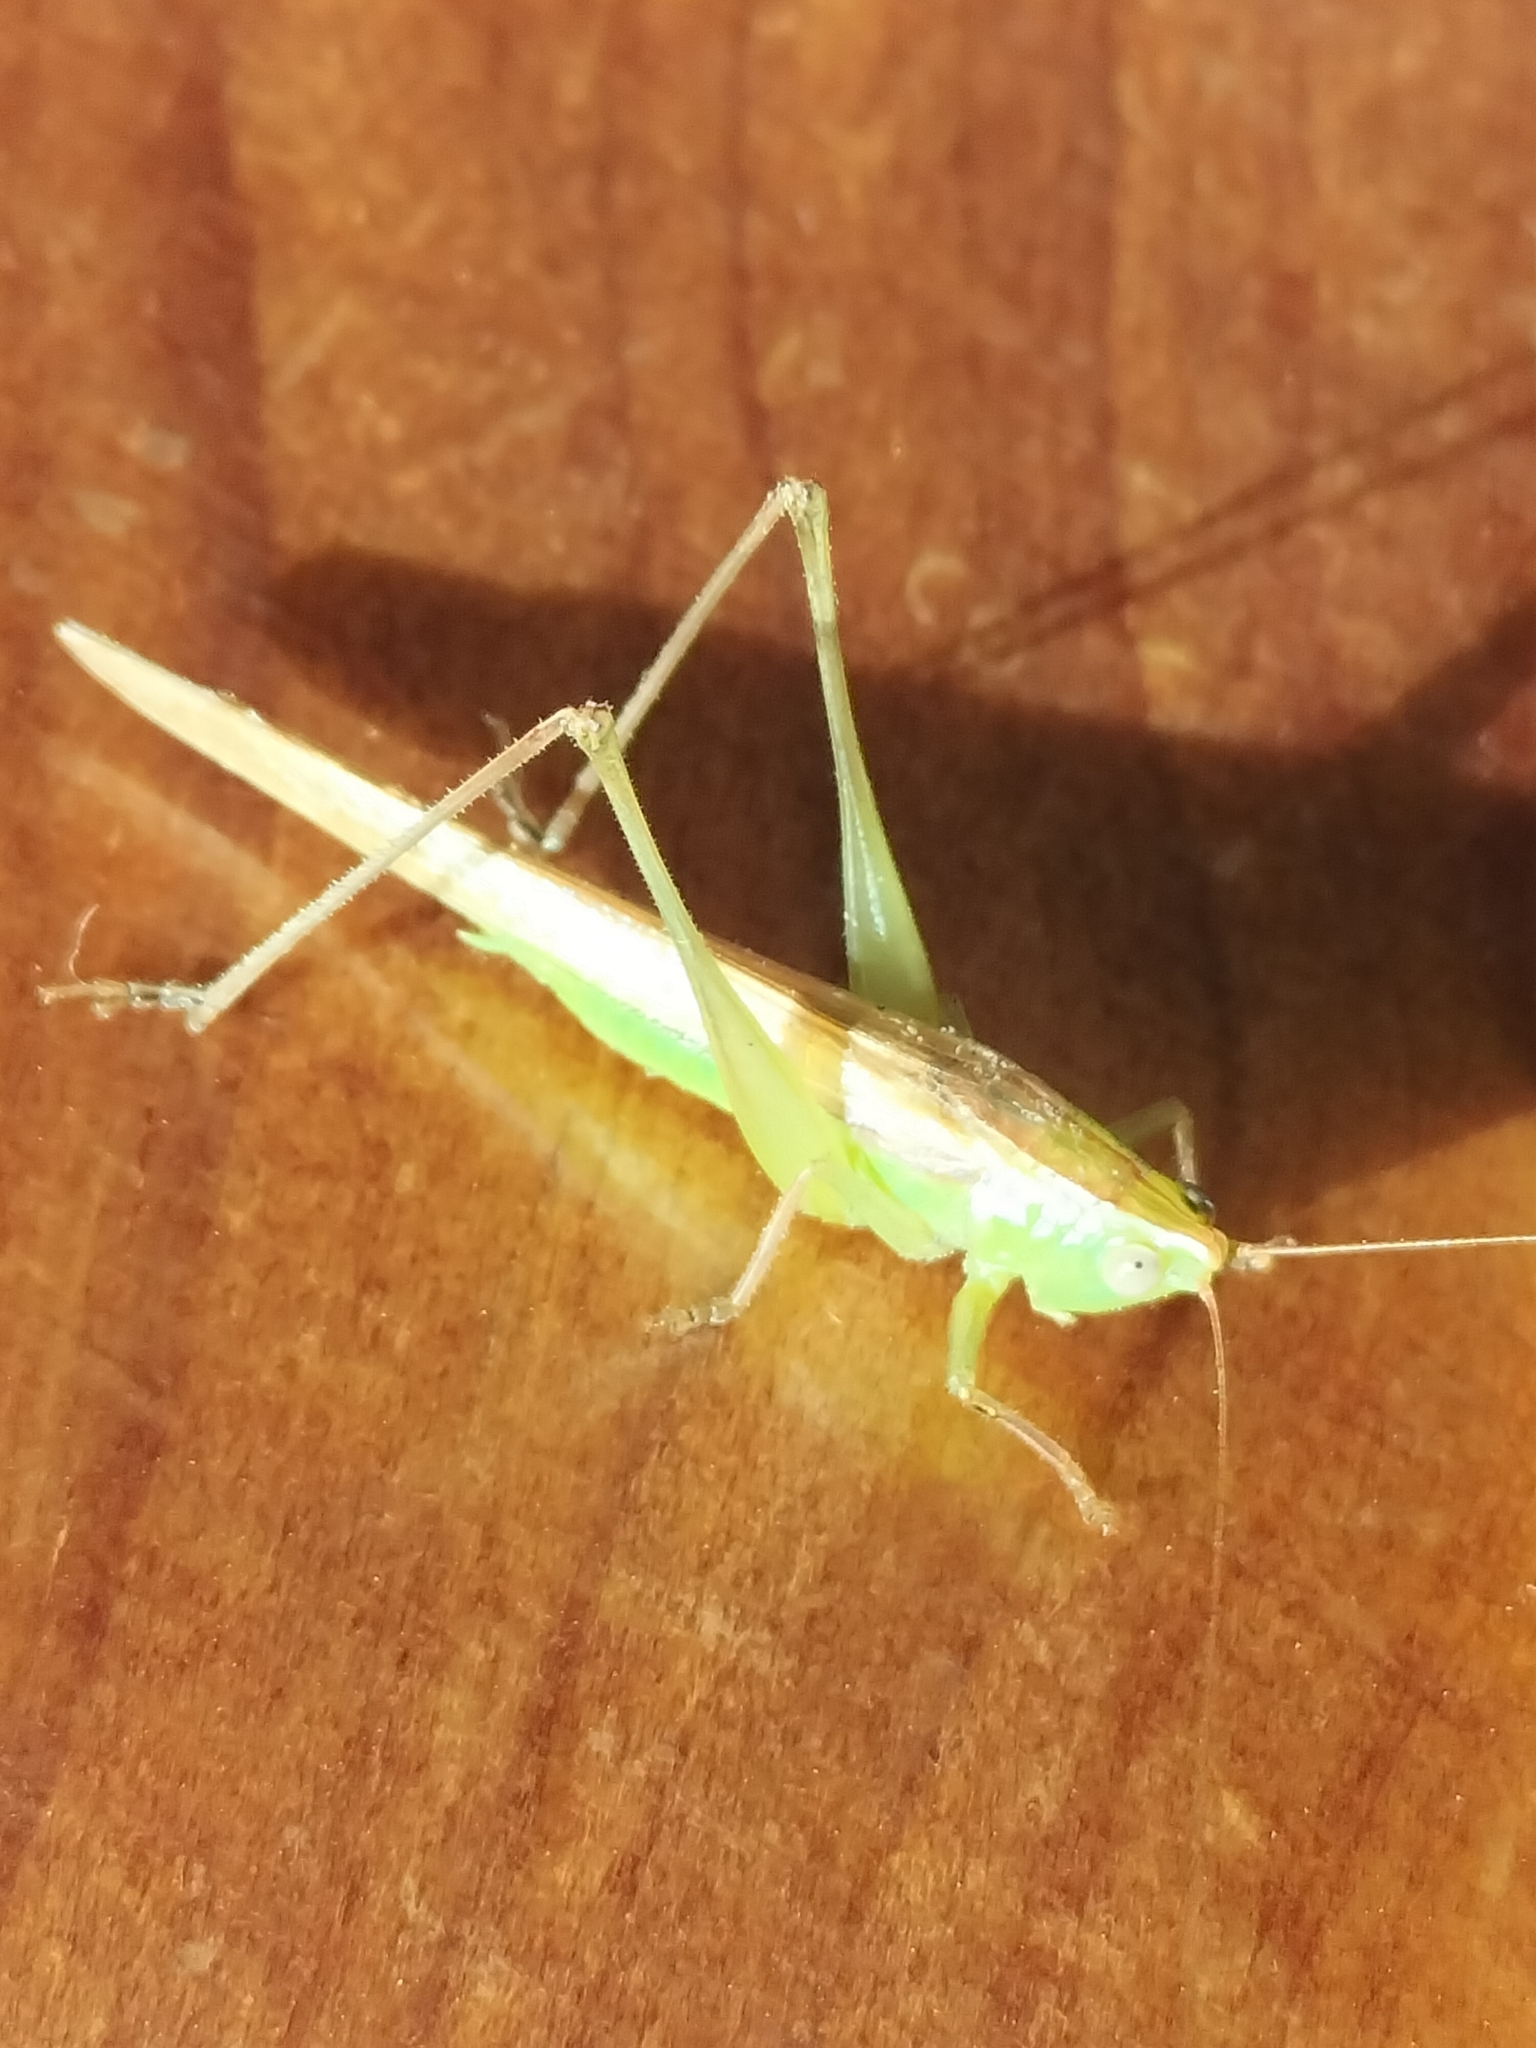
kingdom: Animalia
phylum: Arthropoda
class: Insecta
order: Orthoptera
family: Tettigoniidae
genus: Conocephalus
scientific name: Conocephalus upoluensis
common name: Upolu meadow katydid
